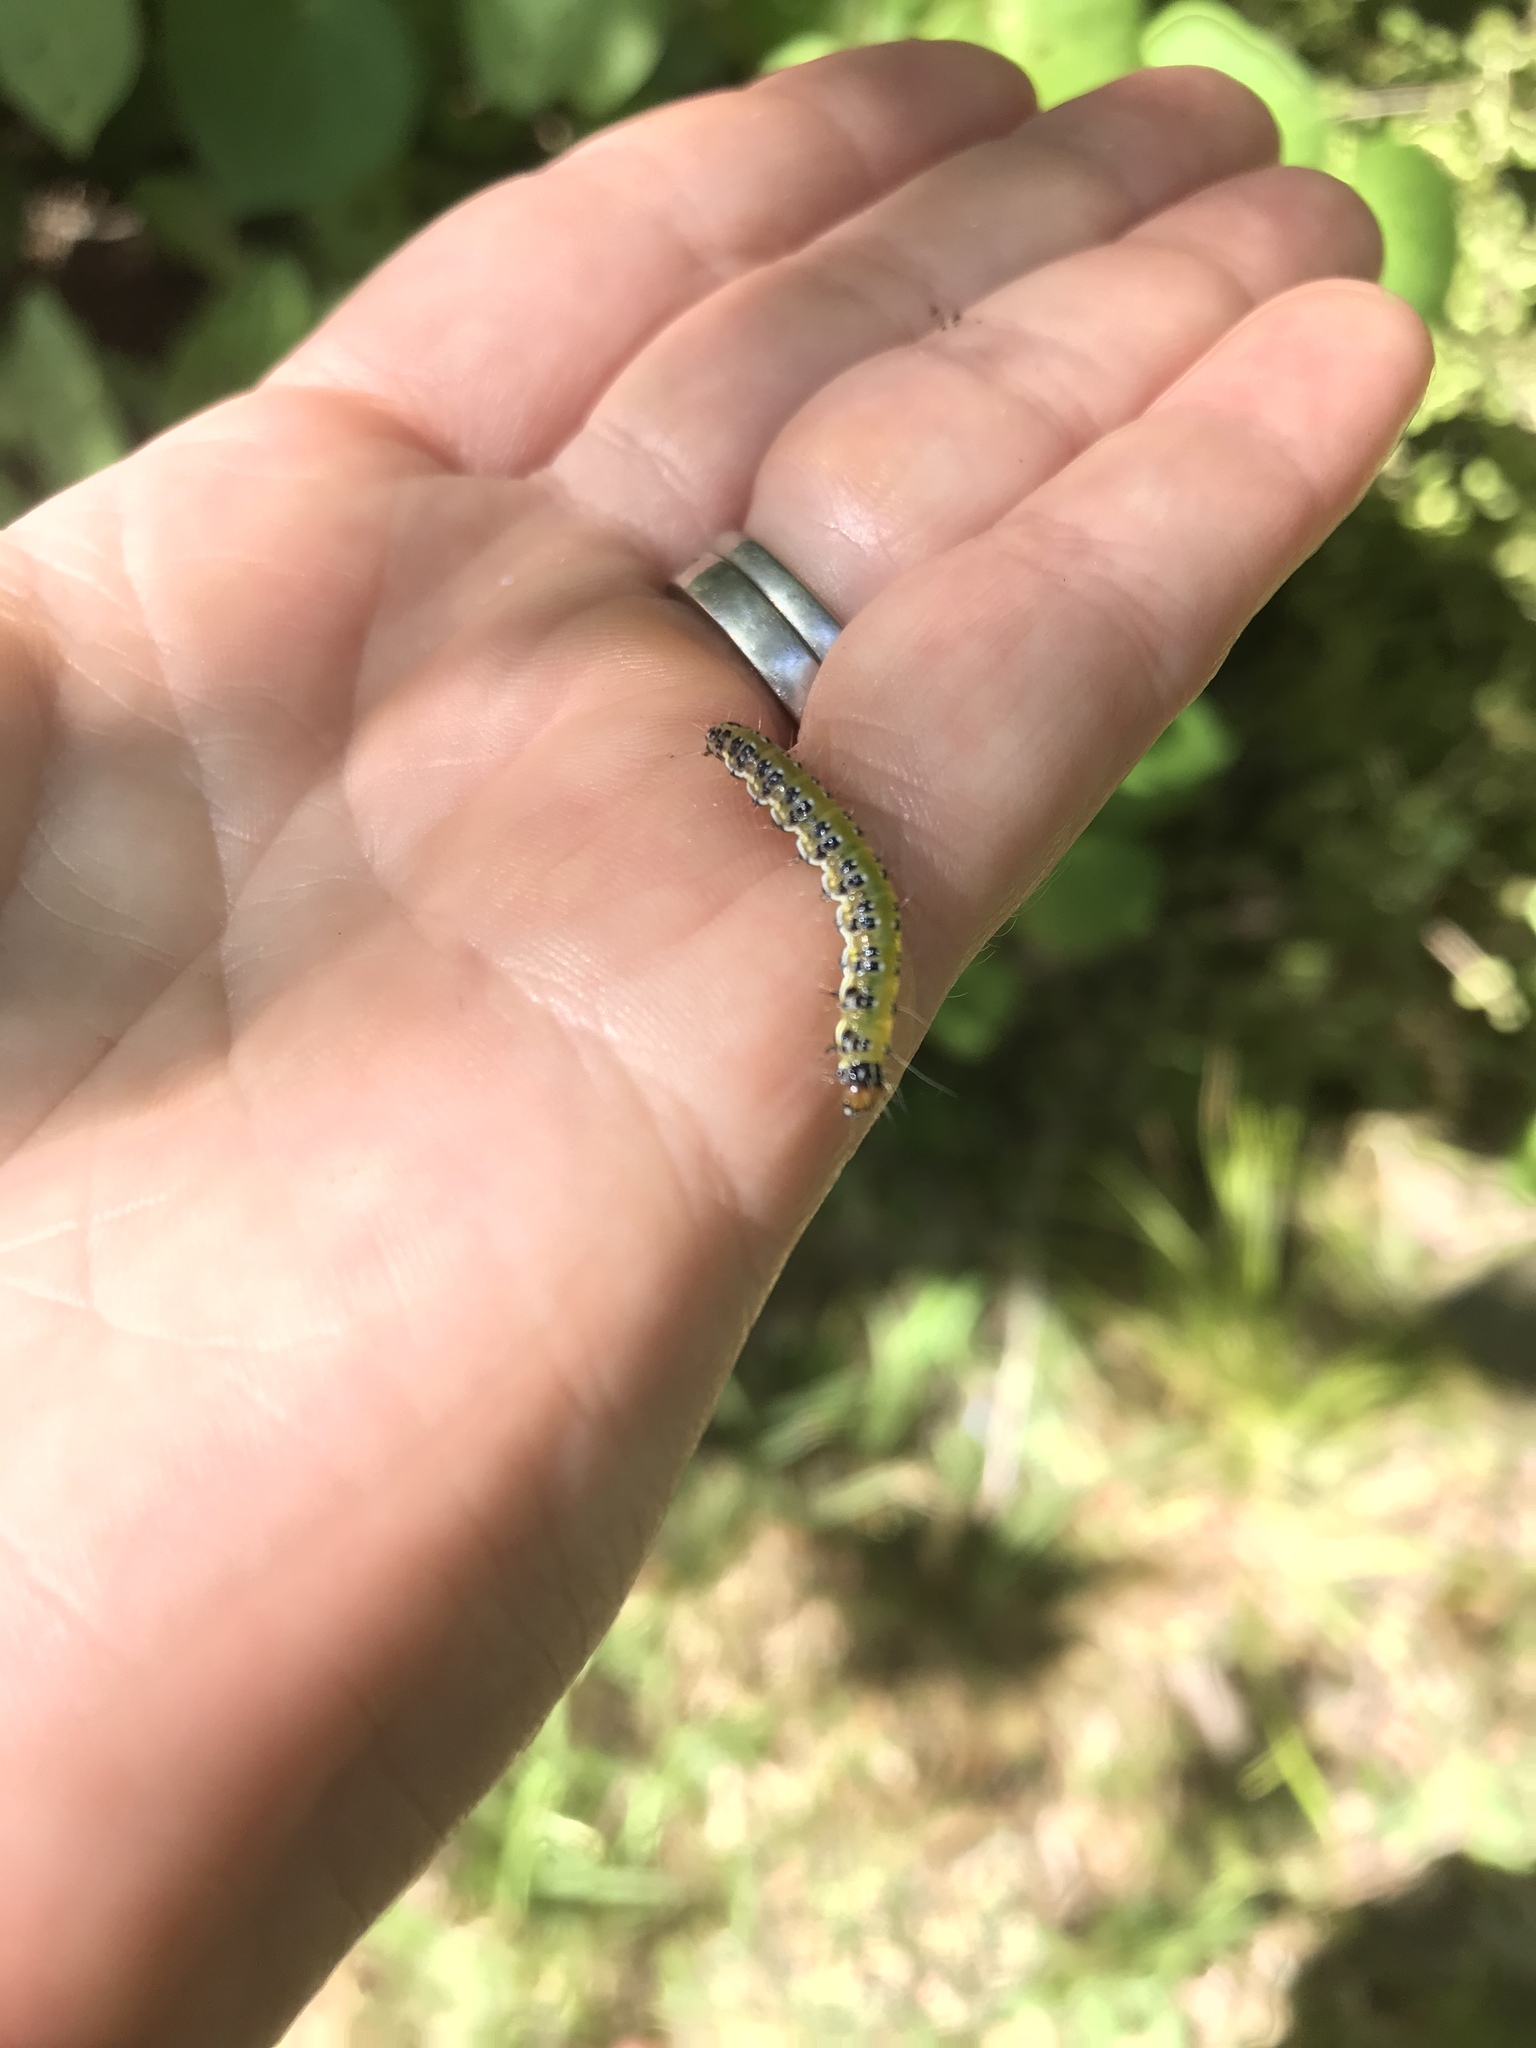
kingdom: Animalia
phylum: Arthropoda
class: Insecta
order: Lepidoptera
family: Crambidae
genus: Uresiphita
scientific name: Uresiphita
